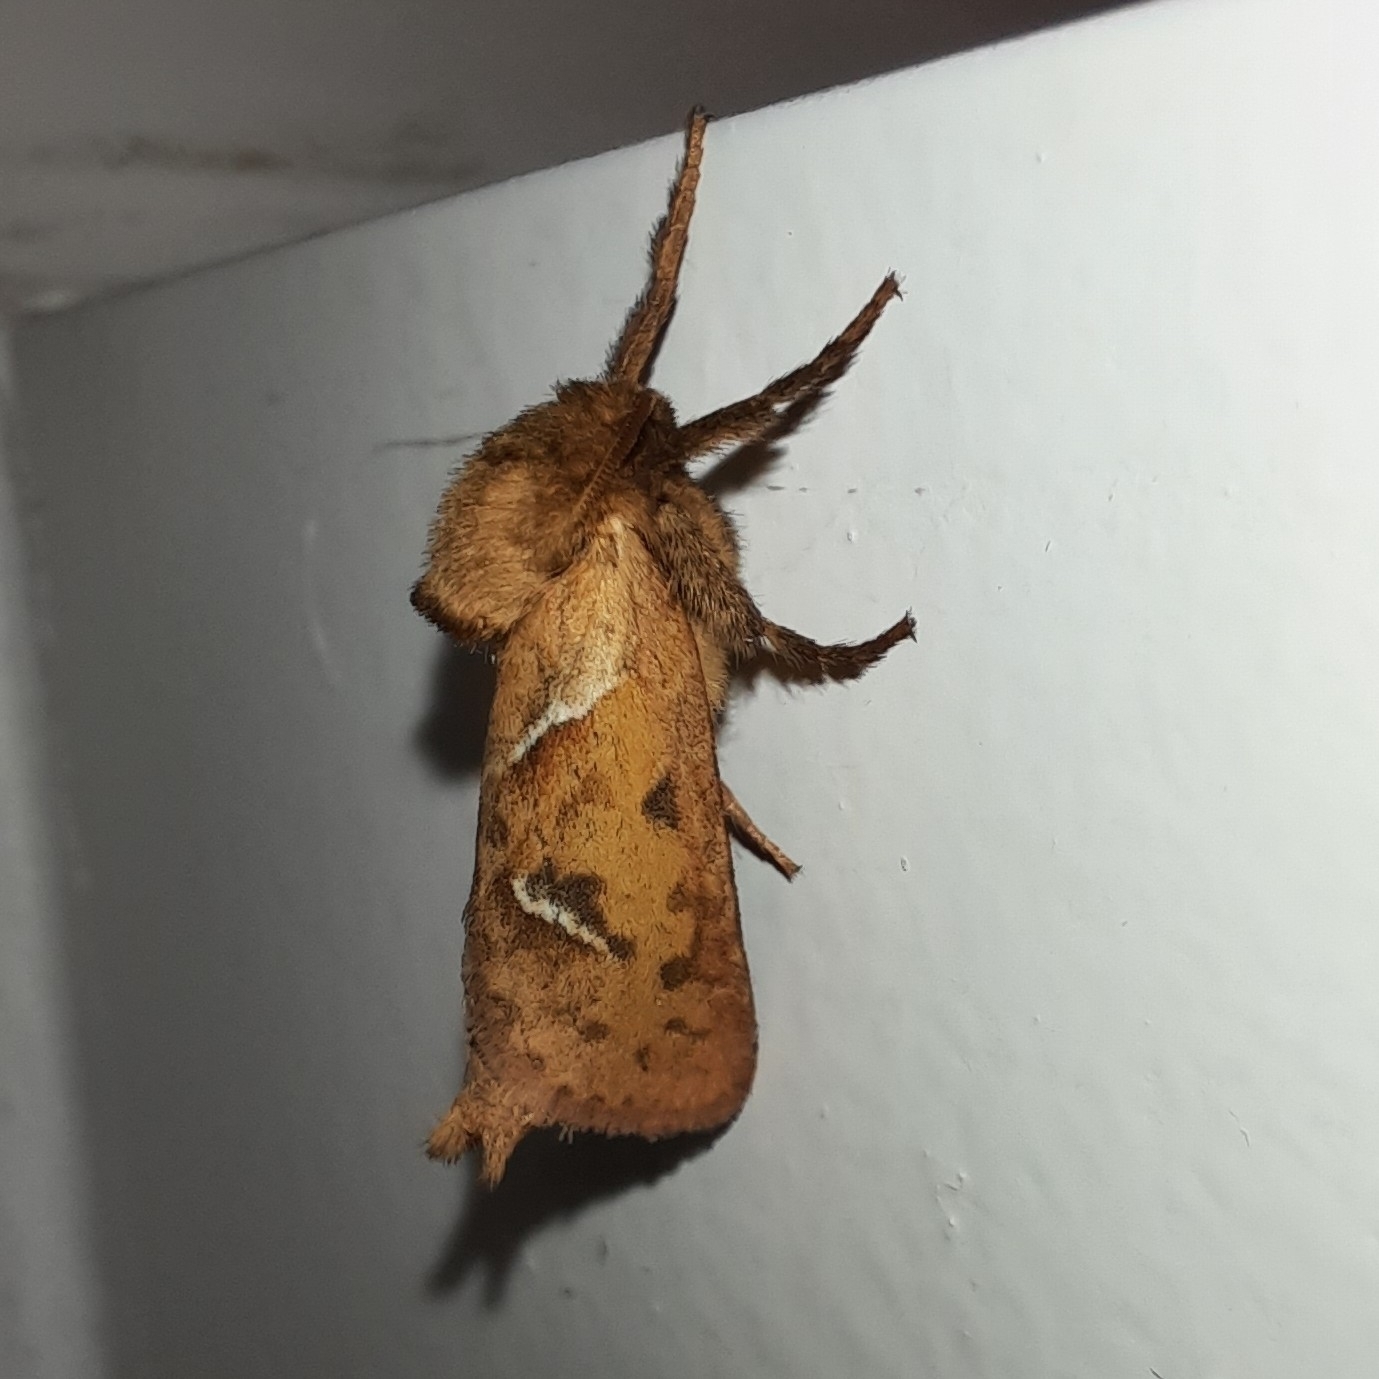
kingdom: Animalia
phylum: Arthropoda
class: Insecta
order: Lepidoptera
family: Hepialidae
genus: Triodia
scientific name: Triodia sylvina
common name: Orange swift
